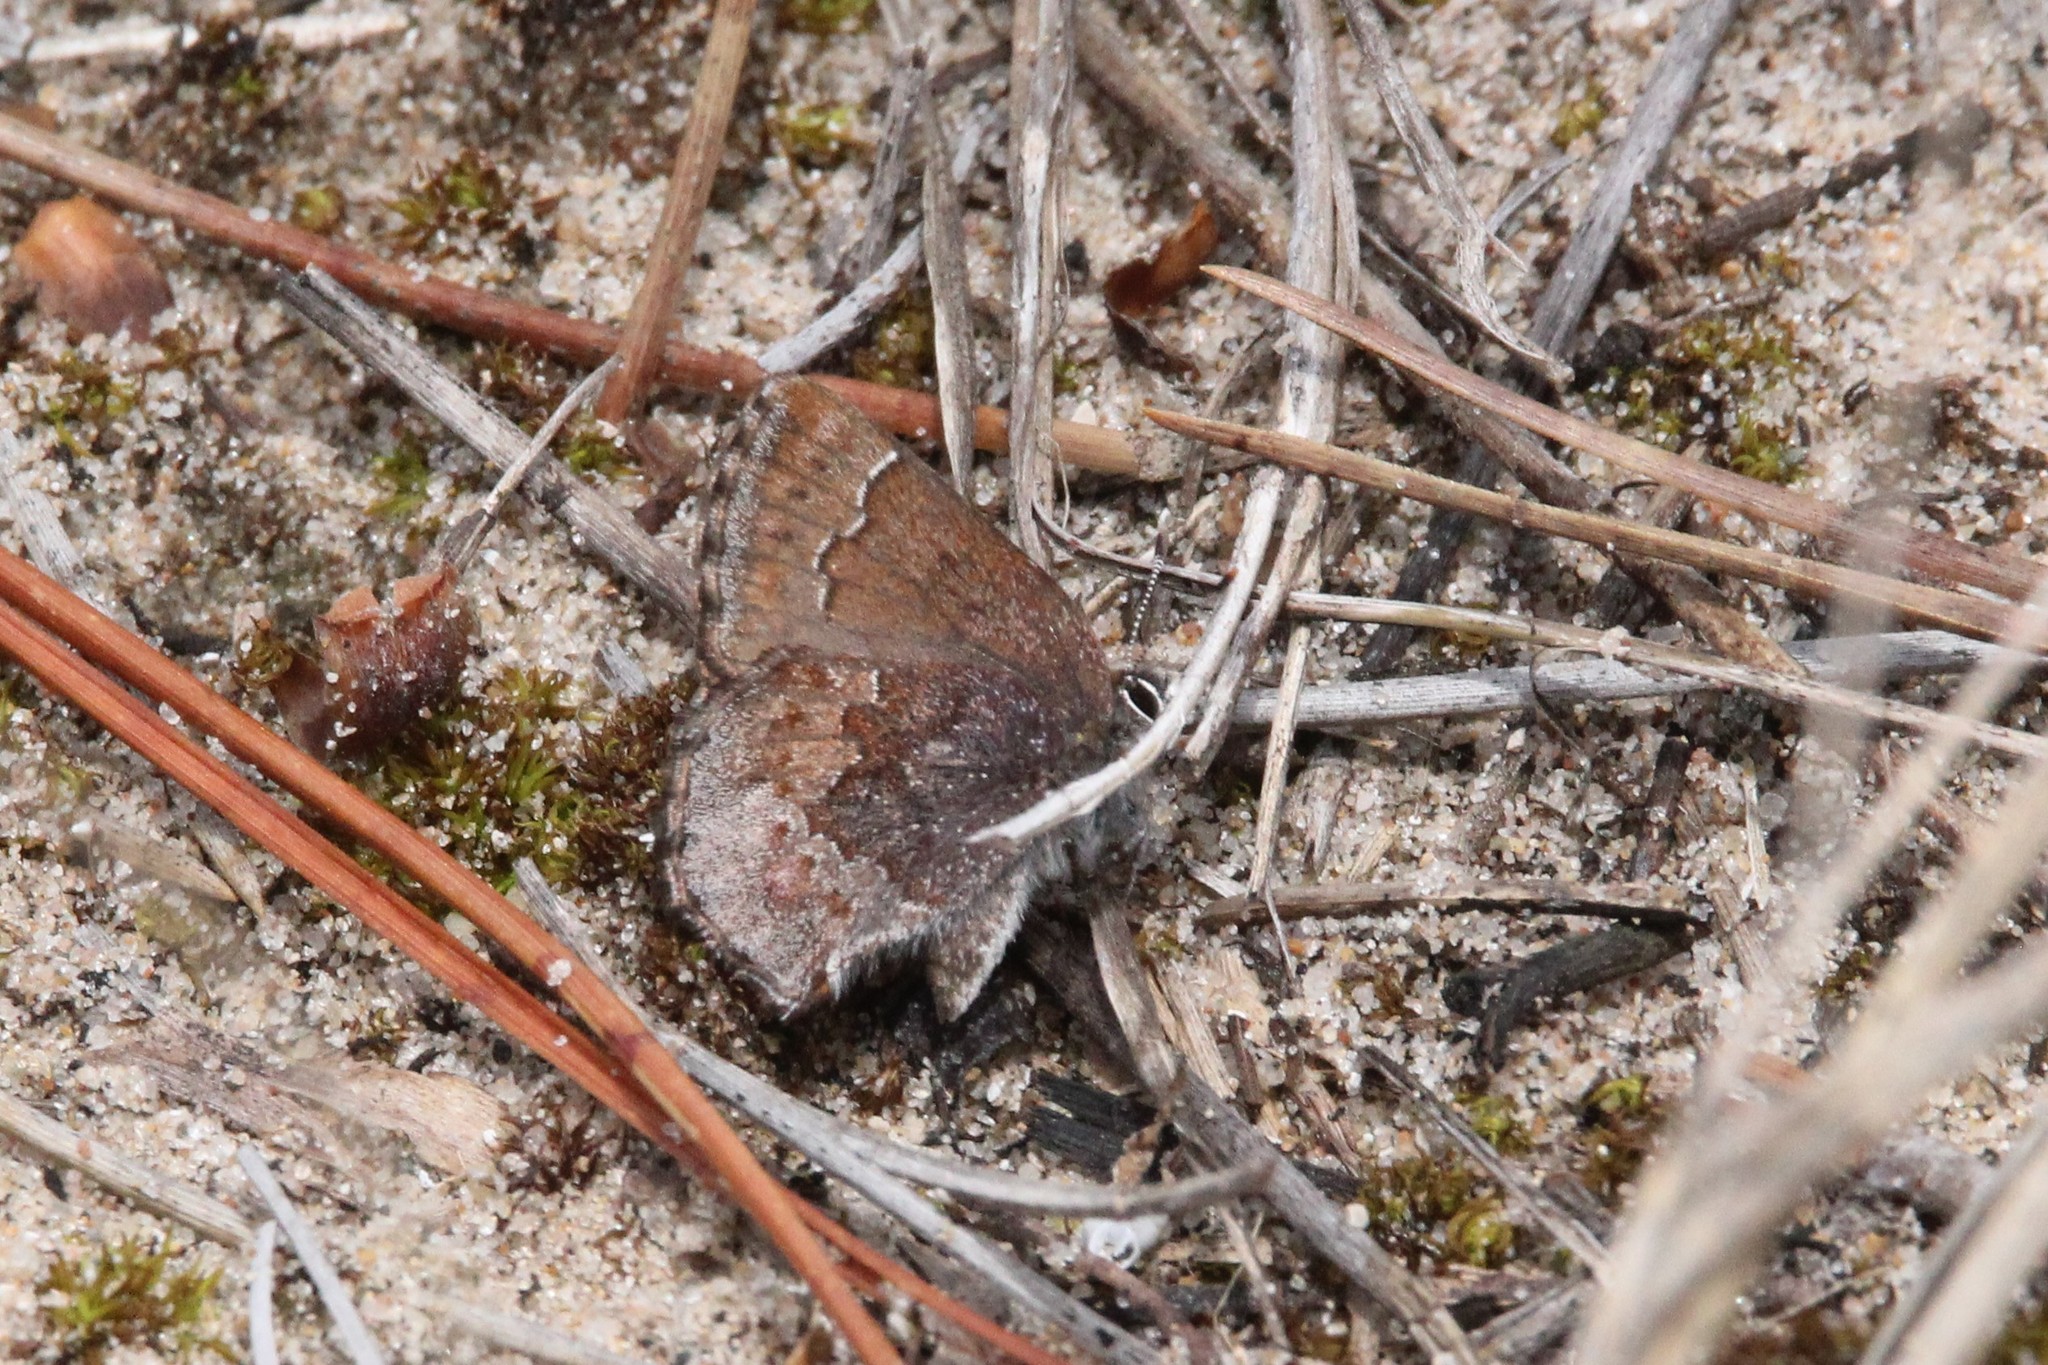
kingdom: Animalia
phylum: Arthropoda
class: Insecta
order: Lepidoptera
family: Lycaenidae
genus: Callophrys
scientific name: Callophrys polios
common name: Hoary elfin
